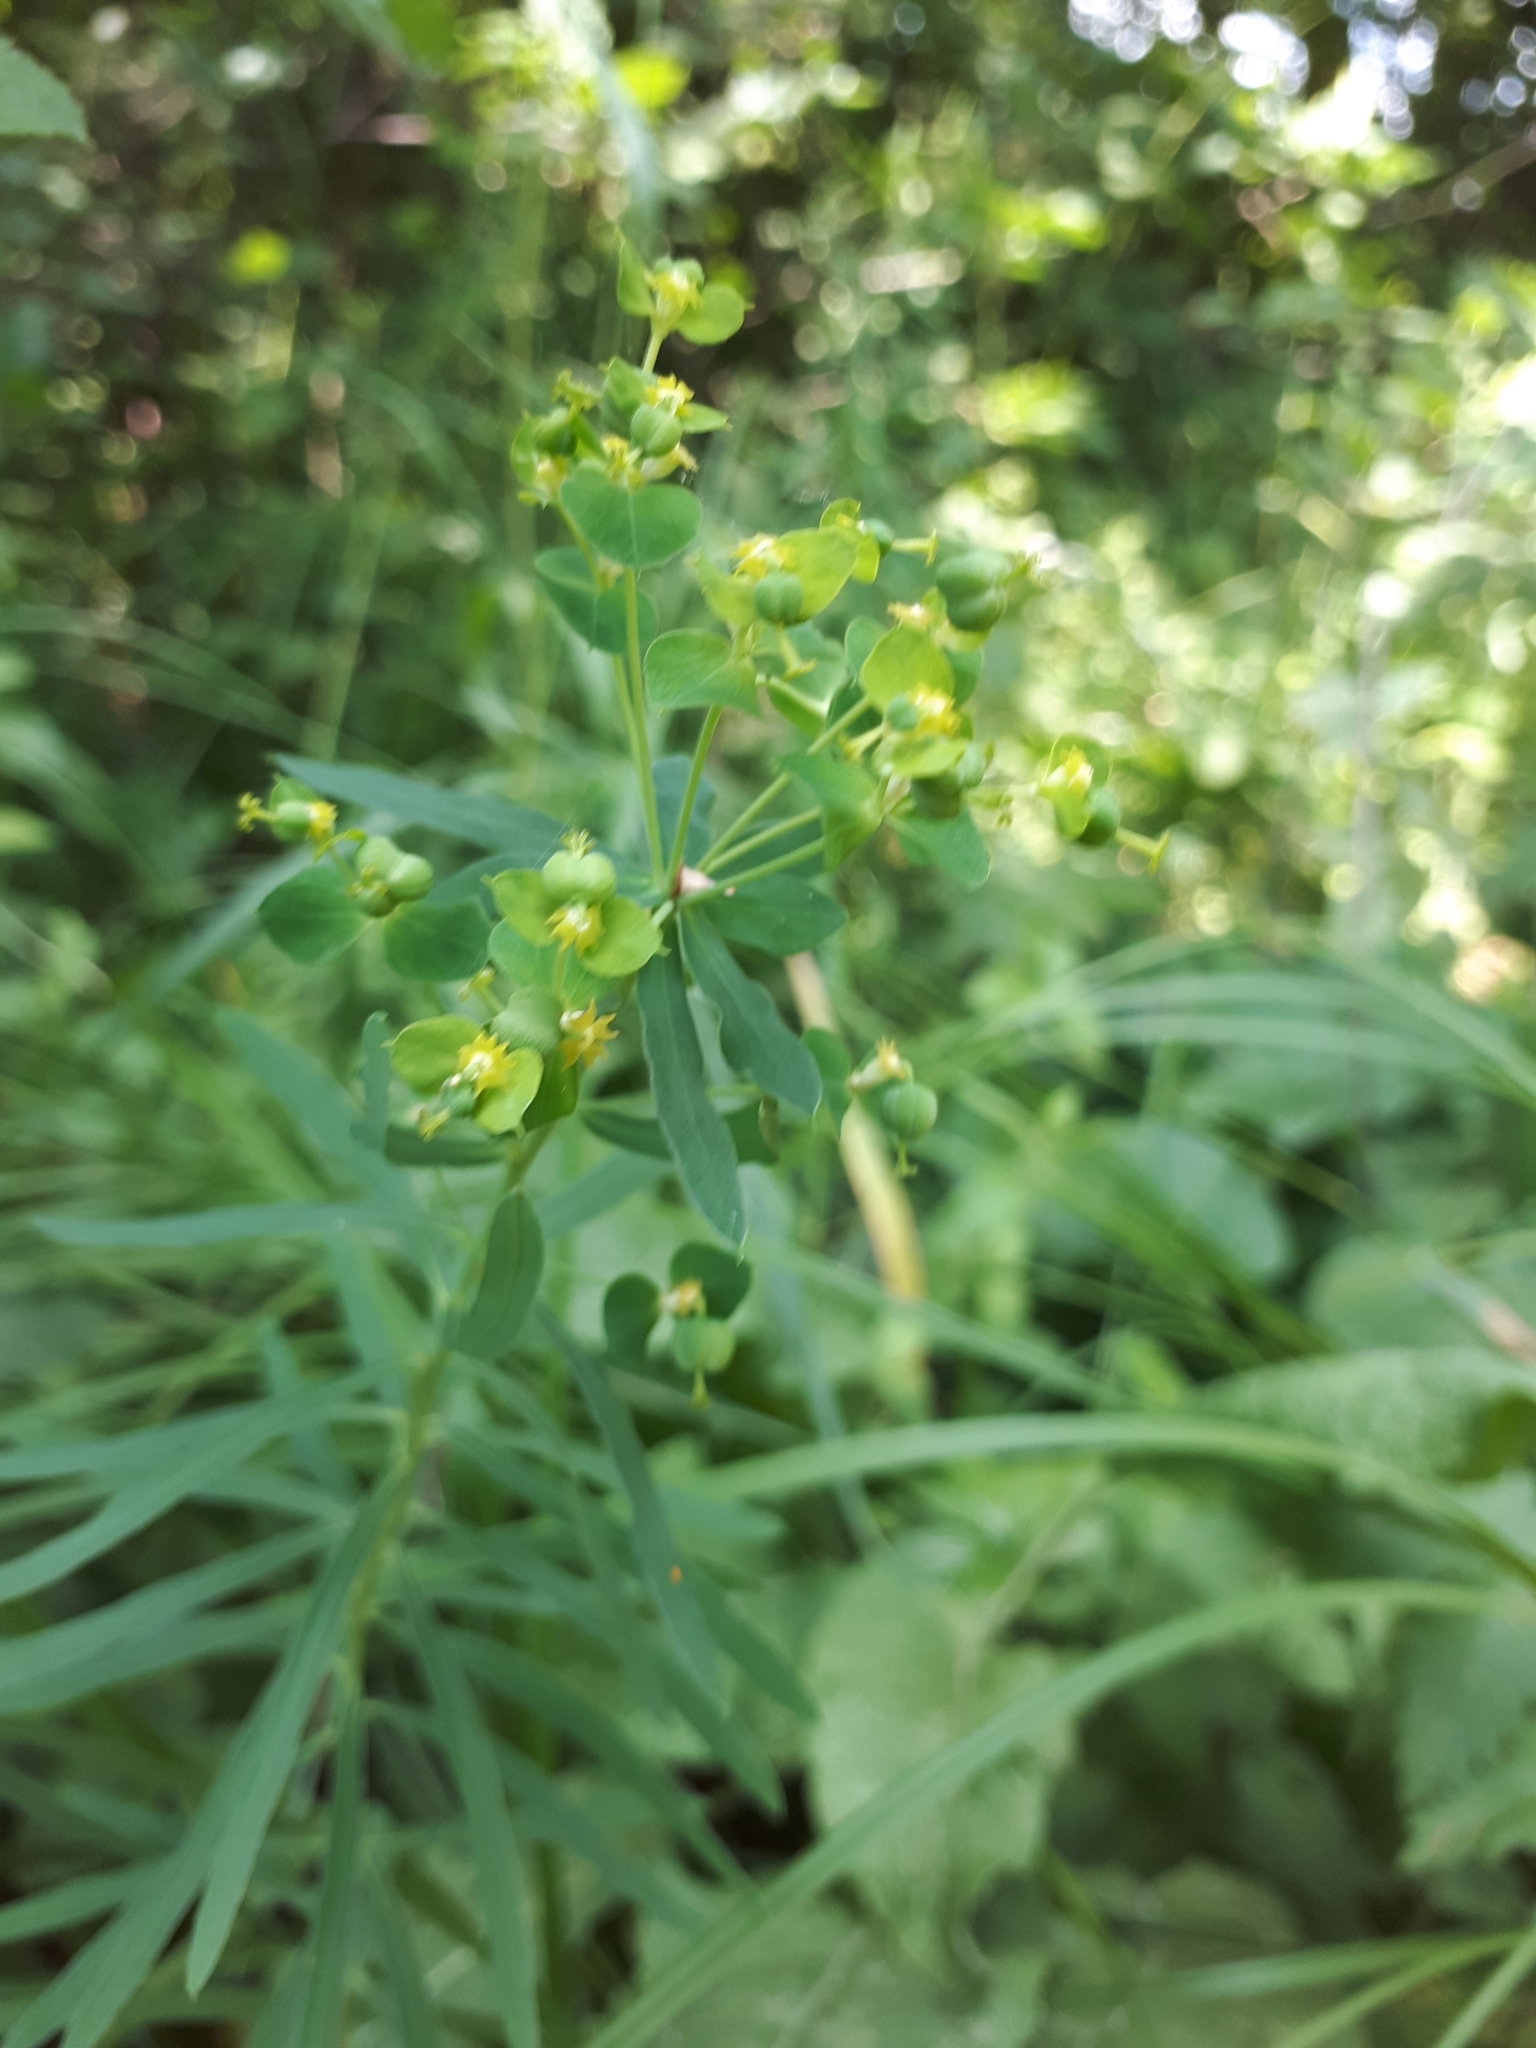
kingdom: Plantae
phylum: Tracheophyta
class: Magnoliopsida
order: Malpighiales
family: Euphorbiaceae
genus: Euphorbia
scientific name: Euphorbia virgata
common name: Leafy spurge
